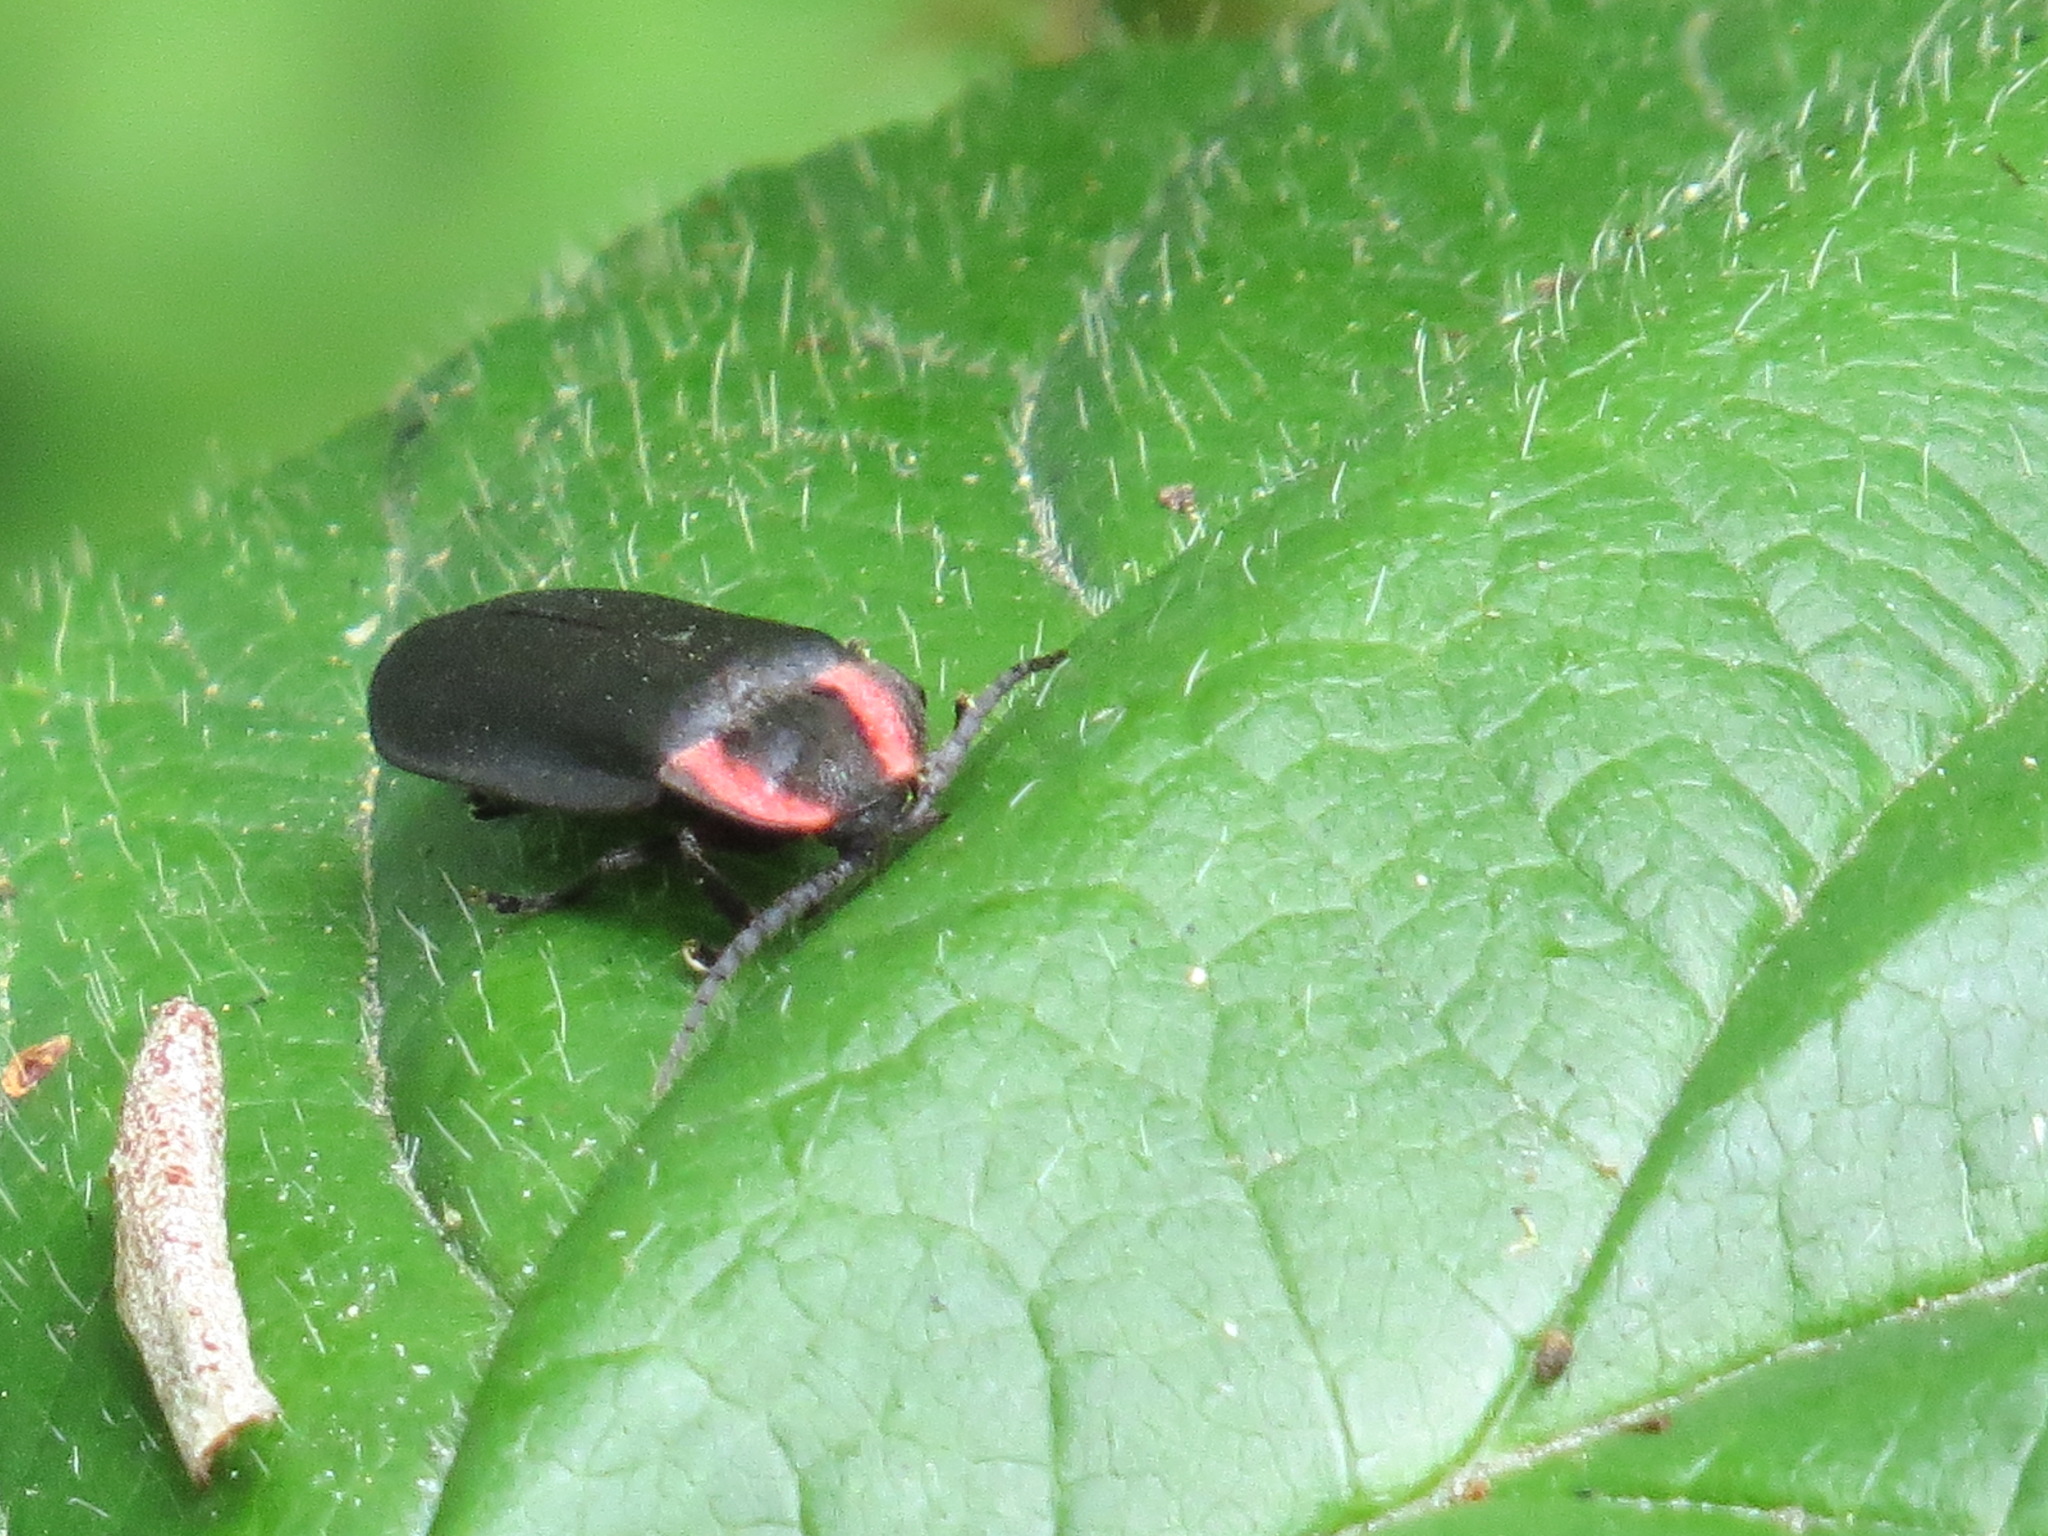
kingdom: Animalia
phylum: Arthropoda
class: Insecta
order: Coleoptera
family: Lampyridae
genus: Photinus
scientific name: Photinus californica
